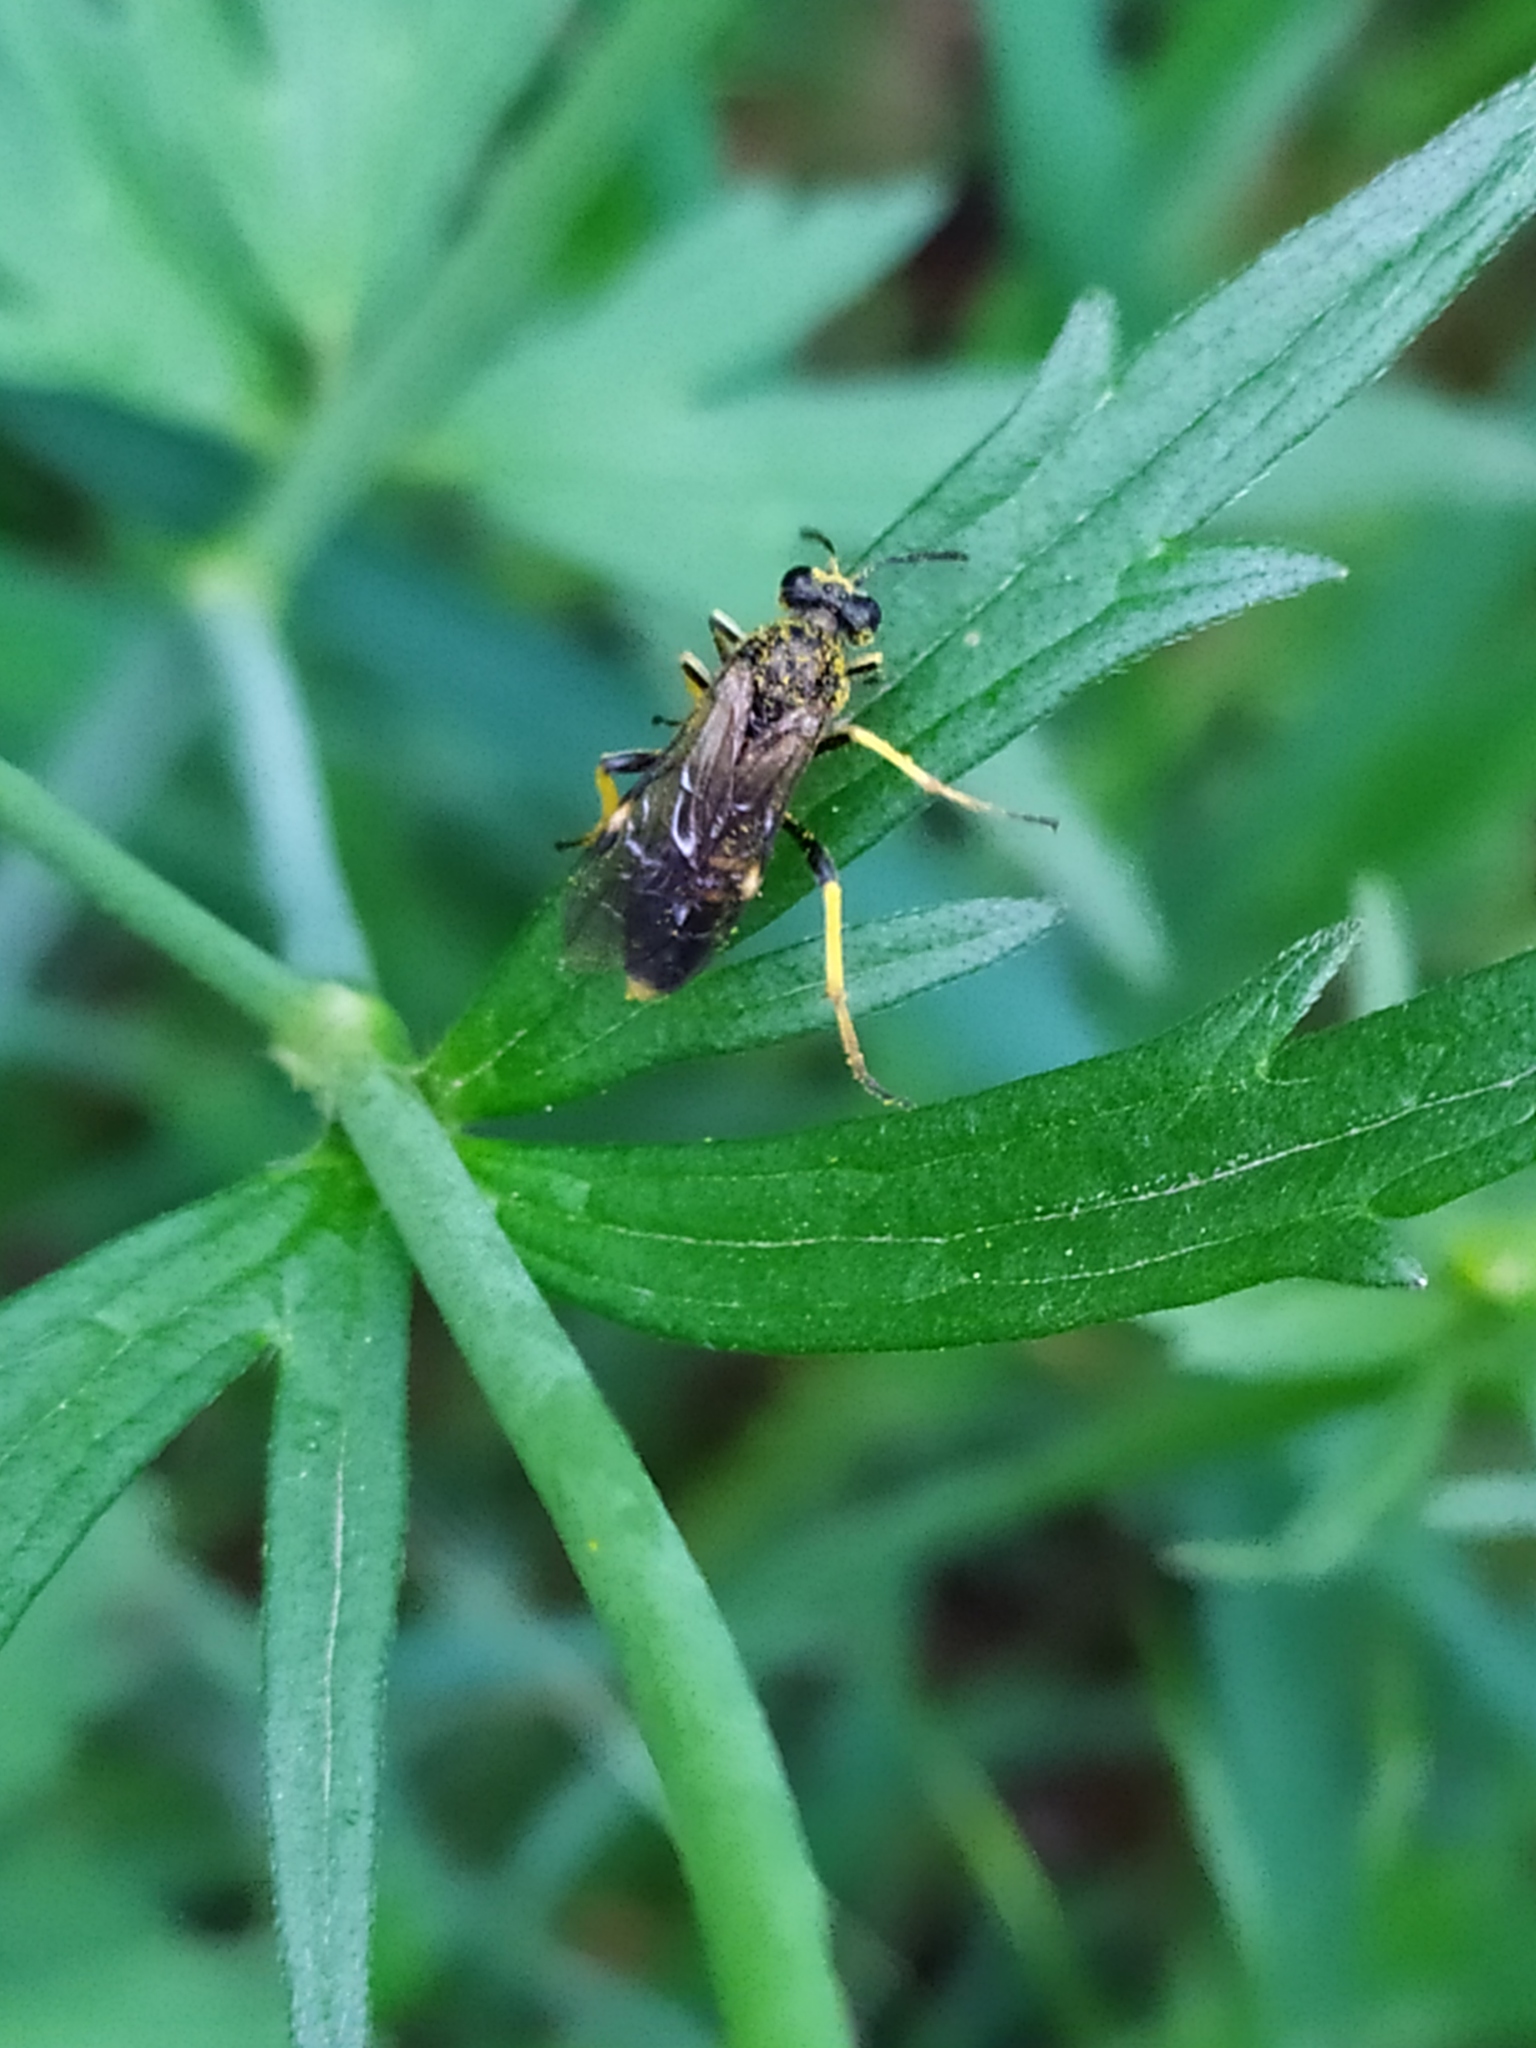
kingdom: Animalia
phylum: Arthropoda
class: Insecta
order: Hymenoptera
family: Tenthredinidae
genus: Tenthredo
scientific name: Tenthredo koehleri
